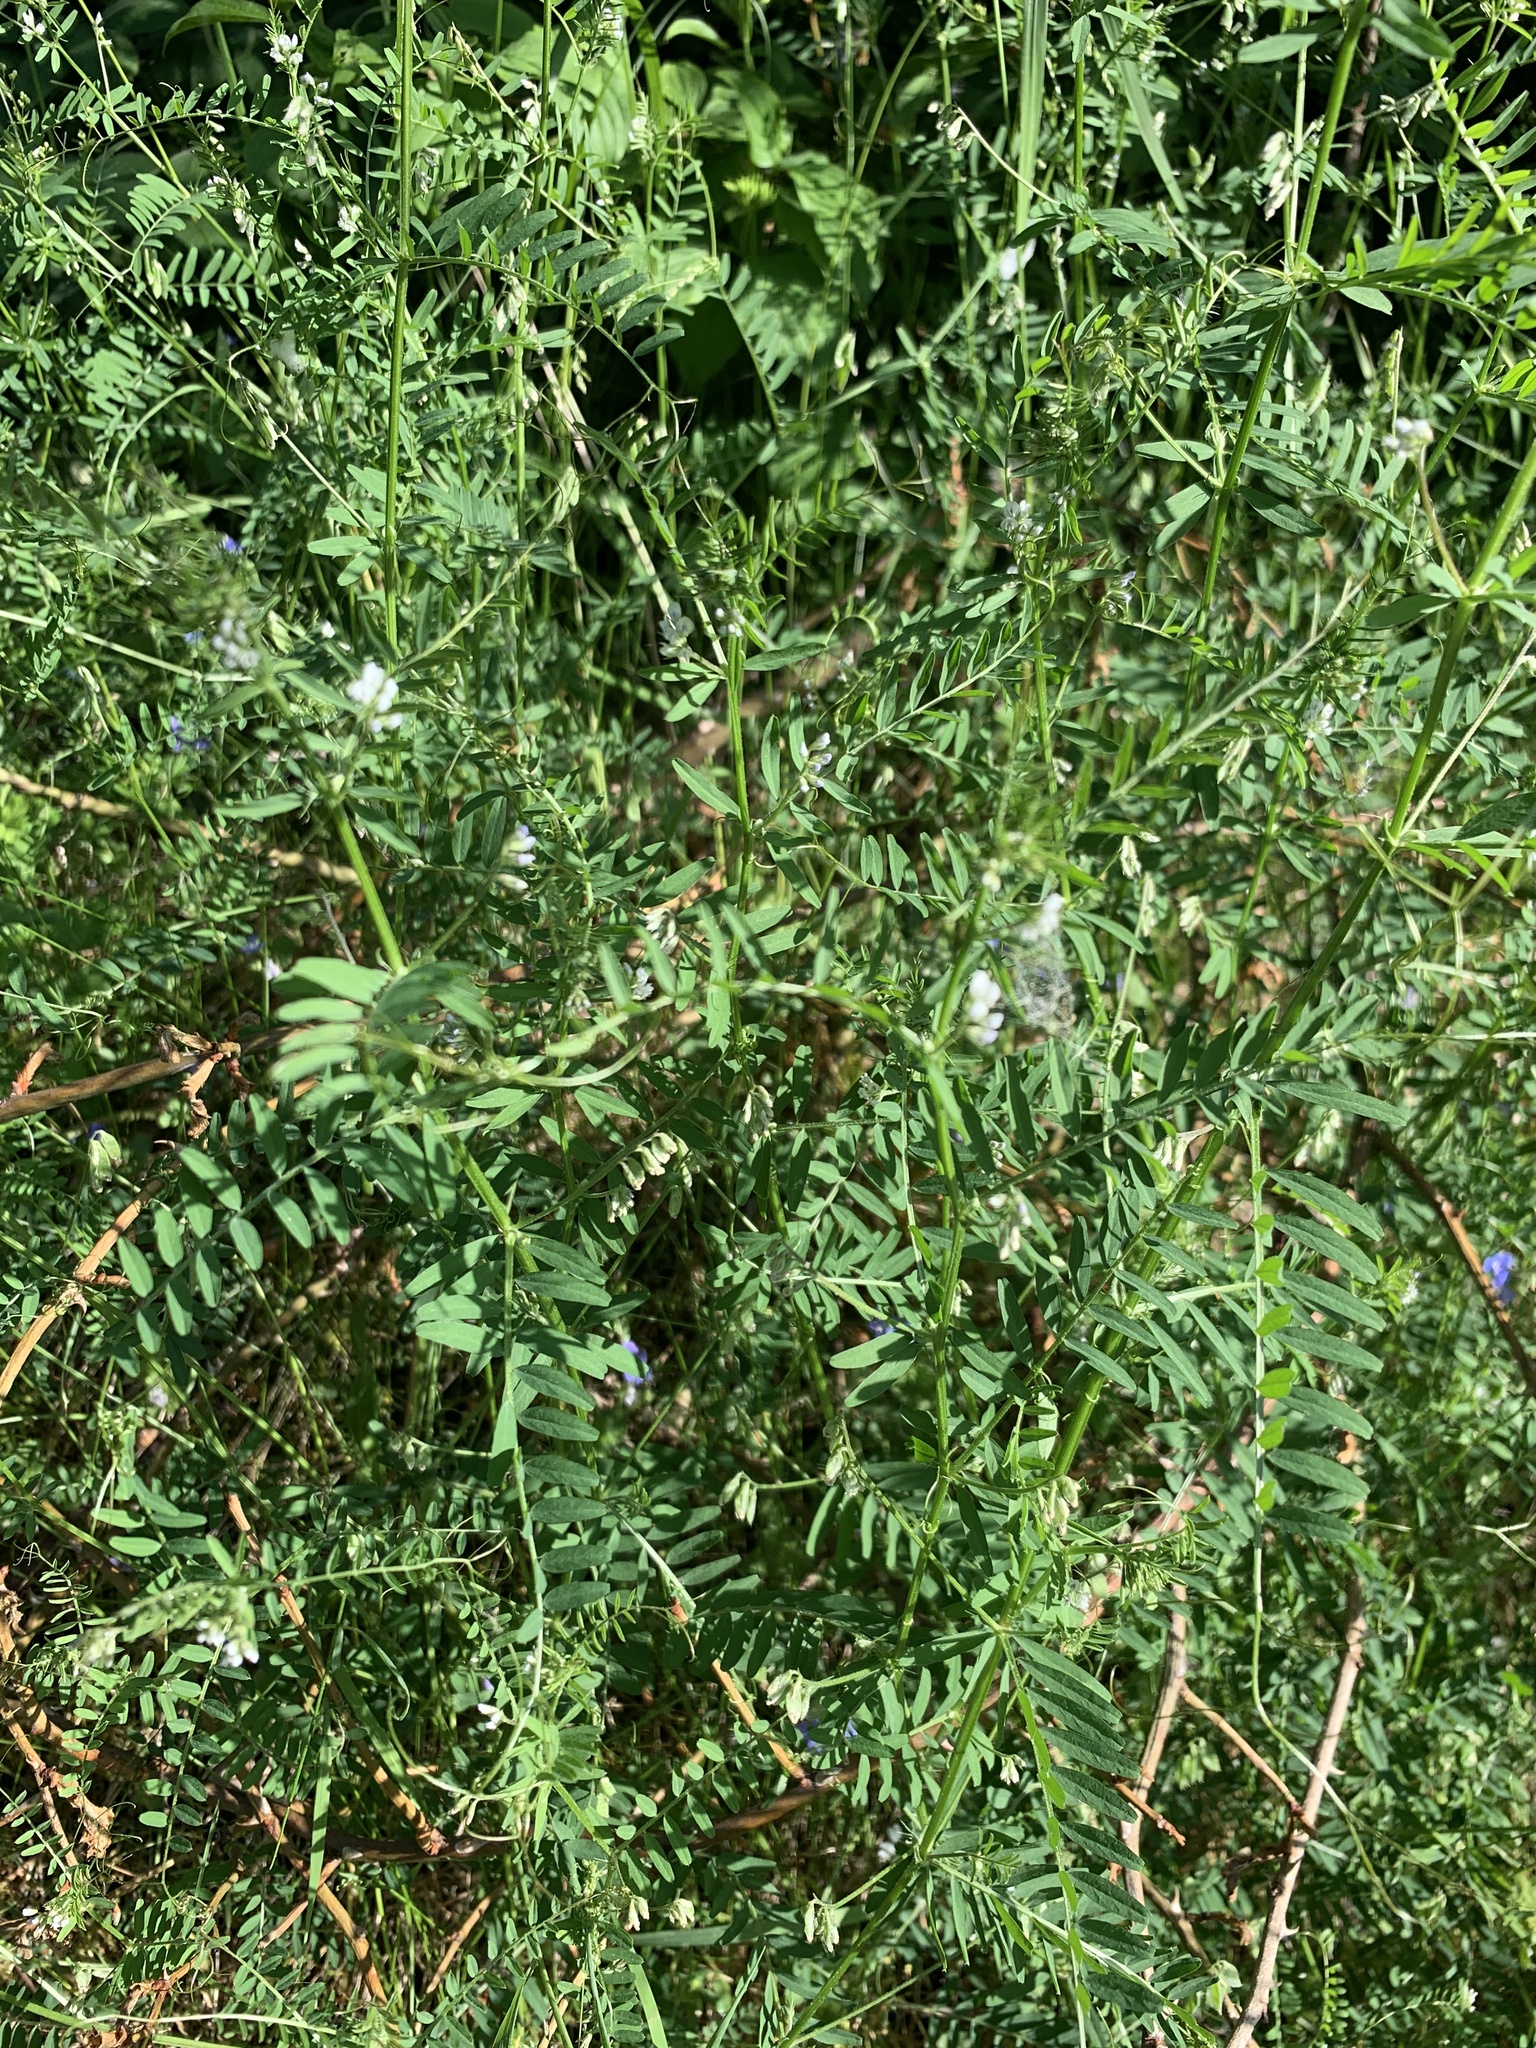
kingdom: Plantae
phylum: Tracheophyta
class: Magnoliopsida
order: Fabales
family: Fabaceae
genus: Vicia
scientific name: Vicia hirsuta
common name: Tiny vetch
